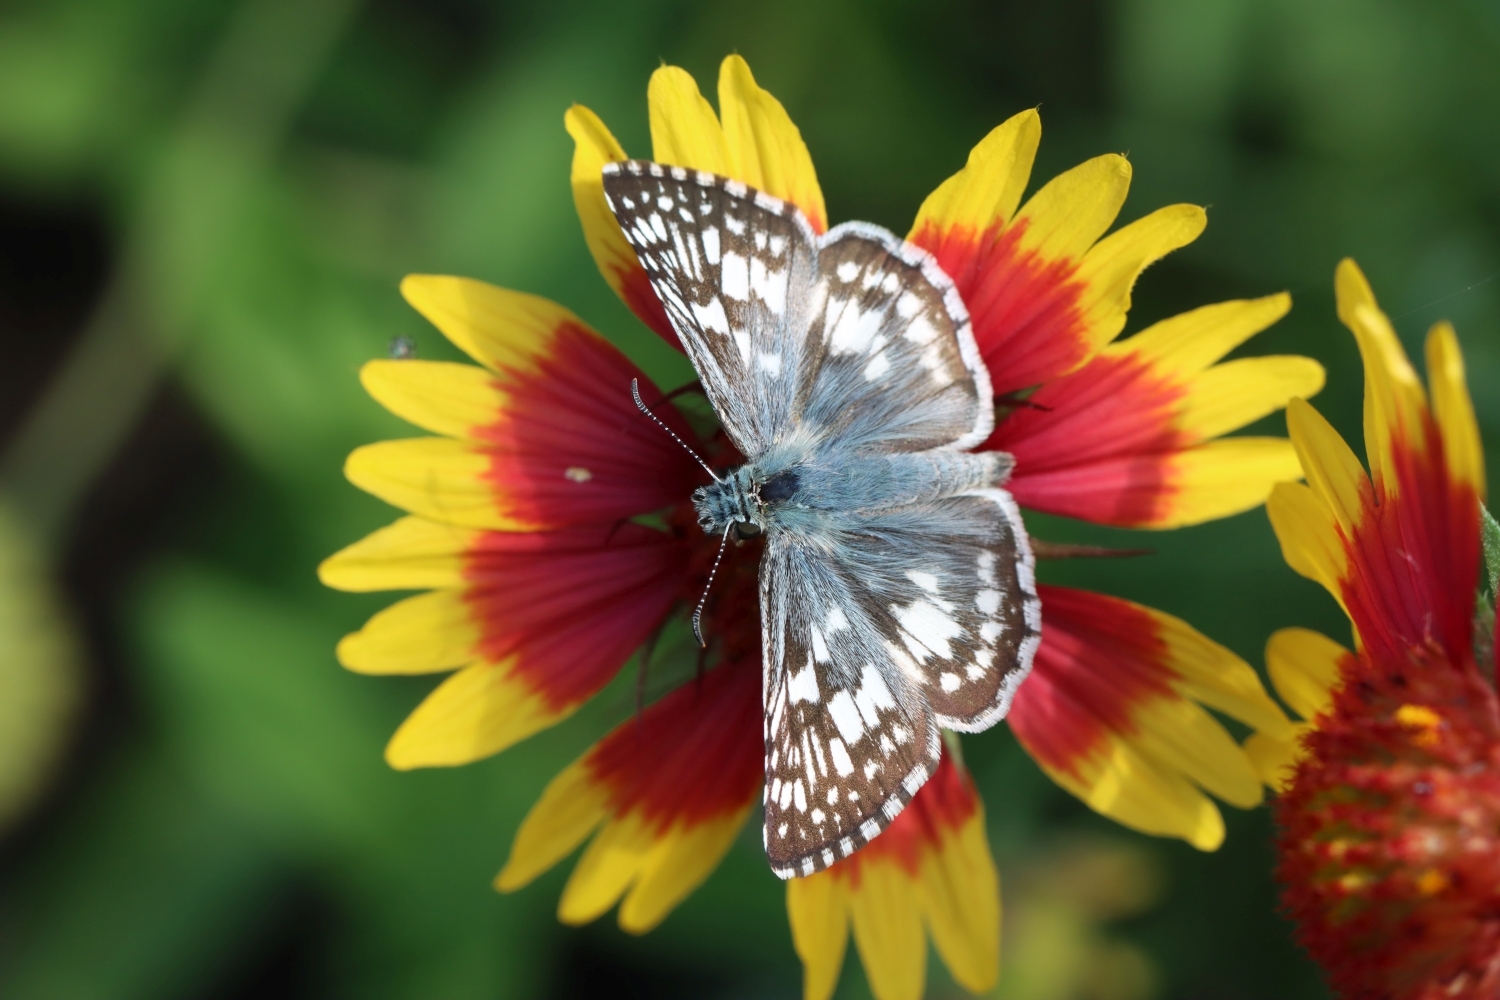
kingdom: Animalia
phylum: Arthropoda
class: Insecta
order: Lepidoptera
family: Hesperiidae
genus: Burnsius
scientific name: Burnsius communis
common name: Common checkered-skipper
